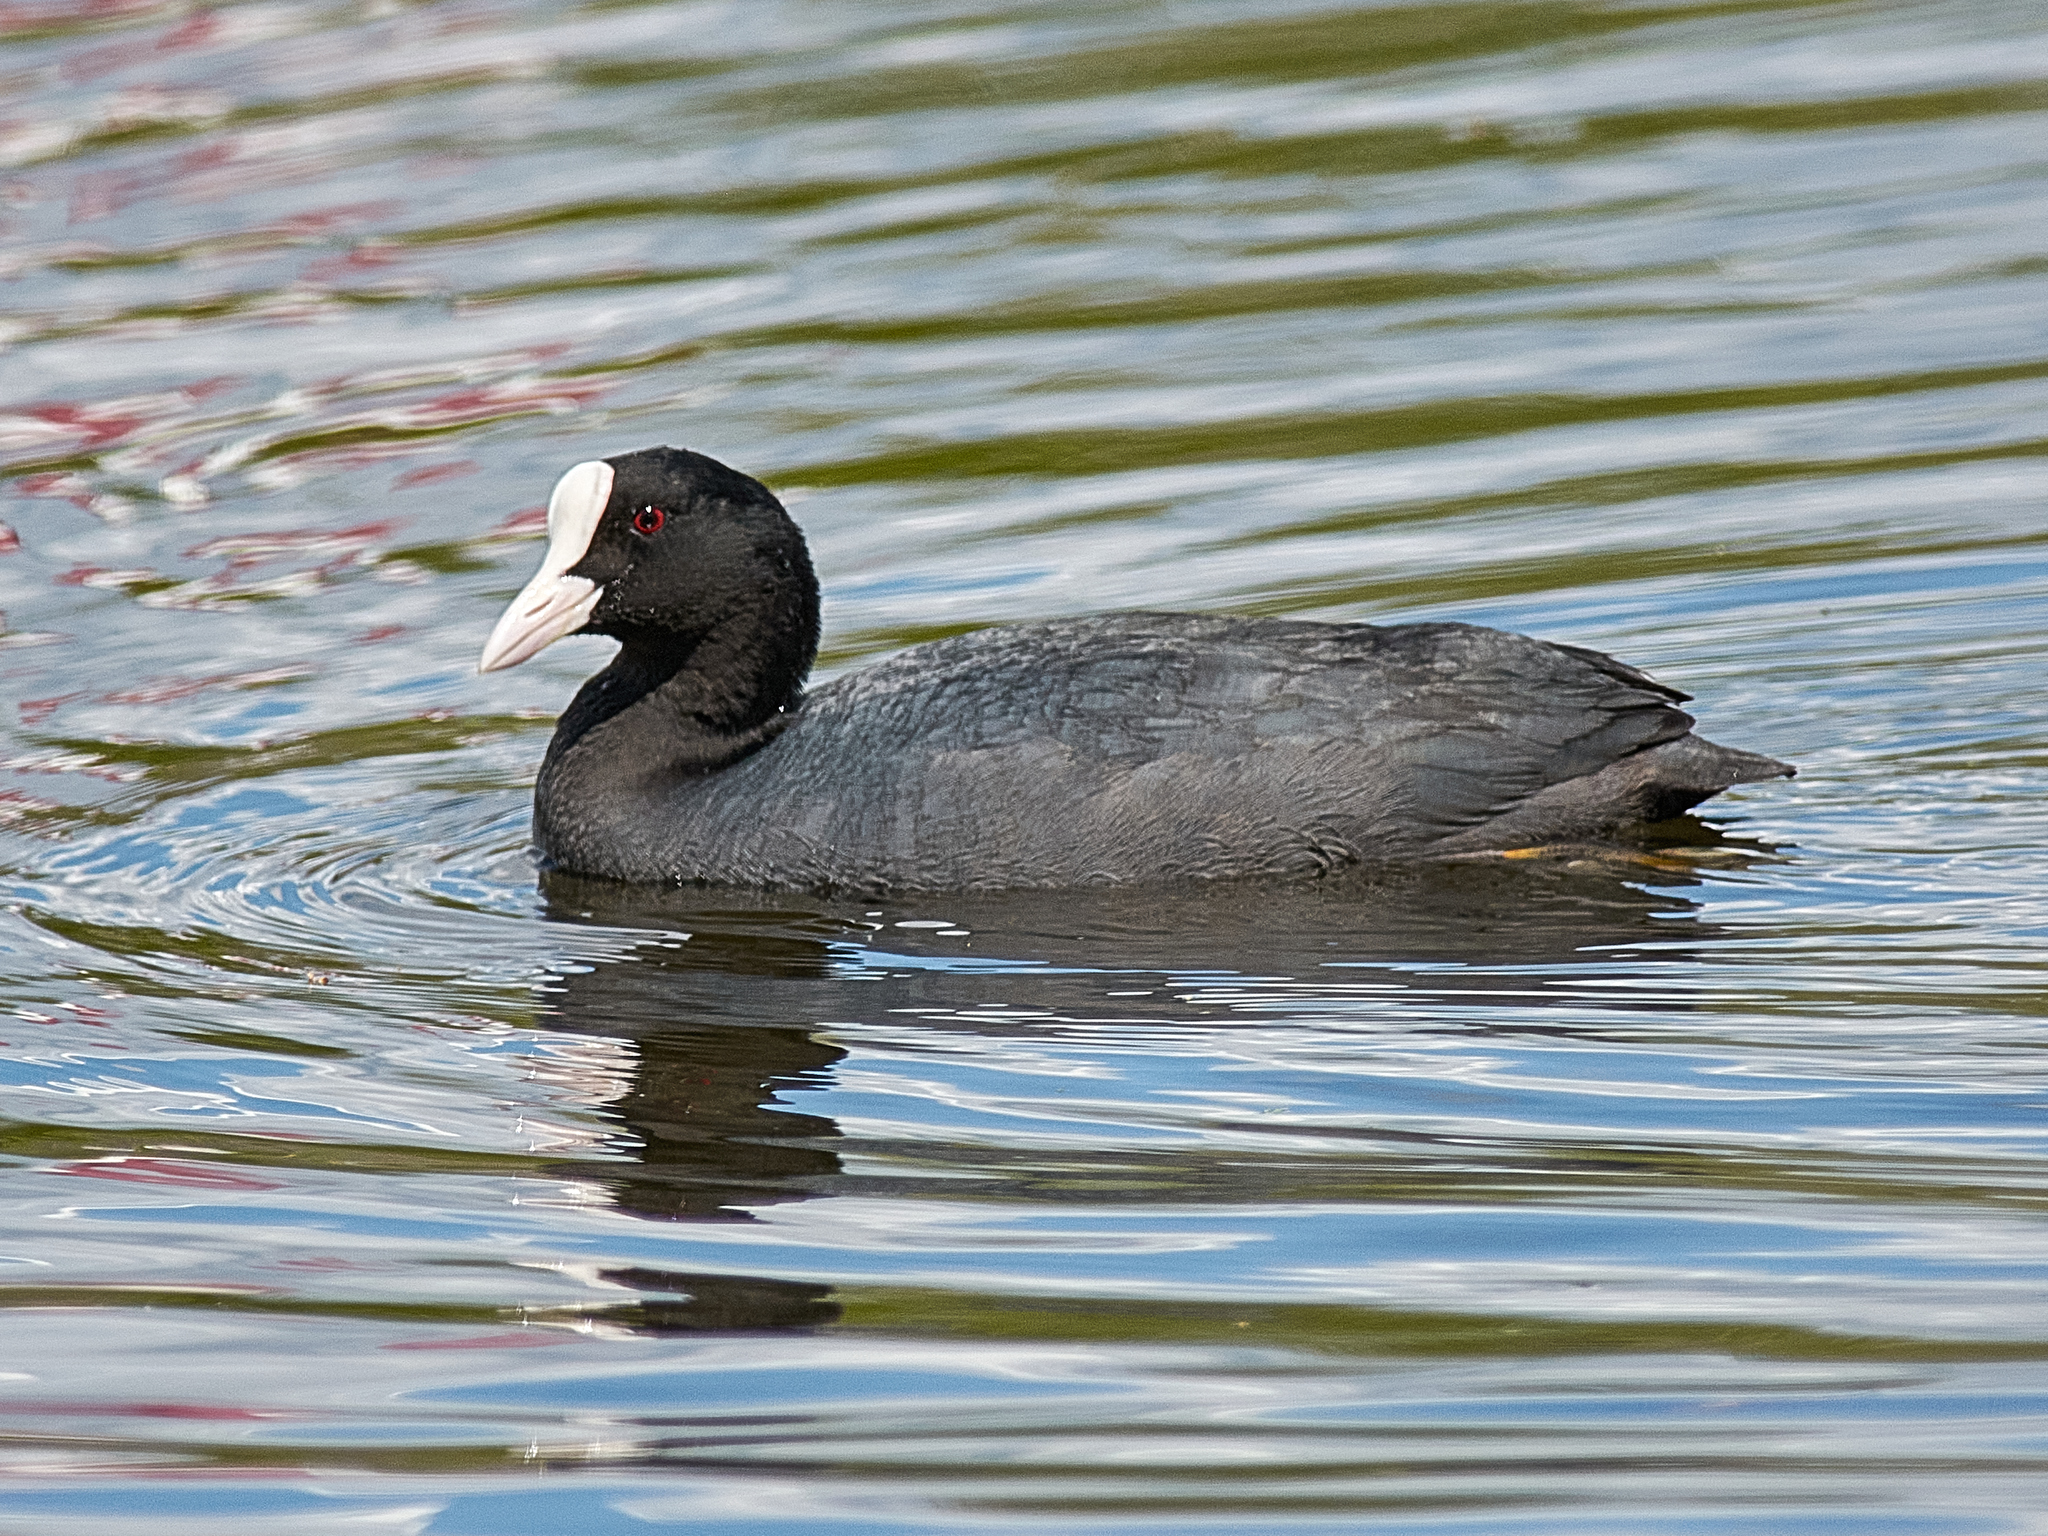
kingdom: Animalia
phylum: Chordata
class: Aves
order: Gruiformes
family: Rallidae
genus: Fulica
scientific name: Fulica atra
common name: Eurasian coot
